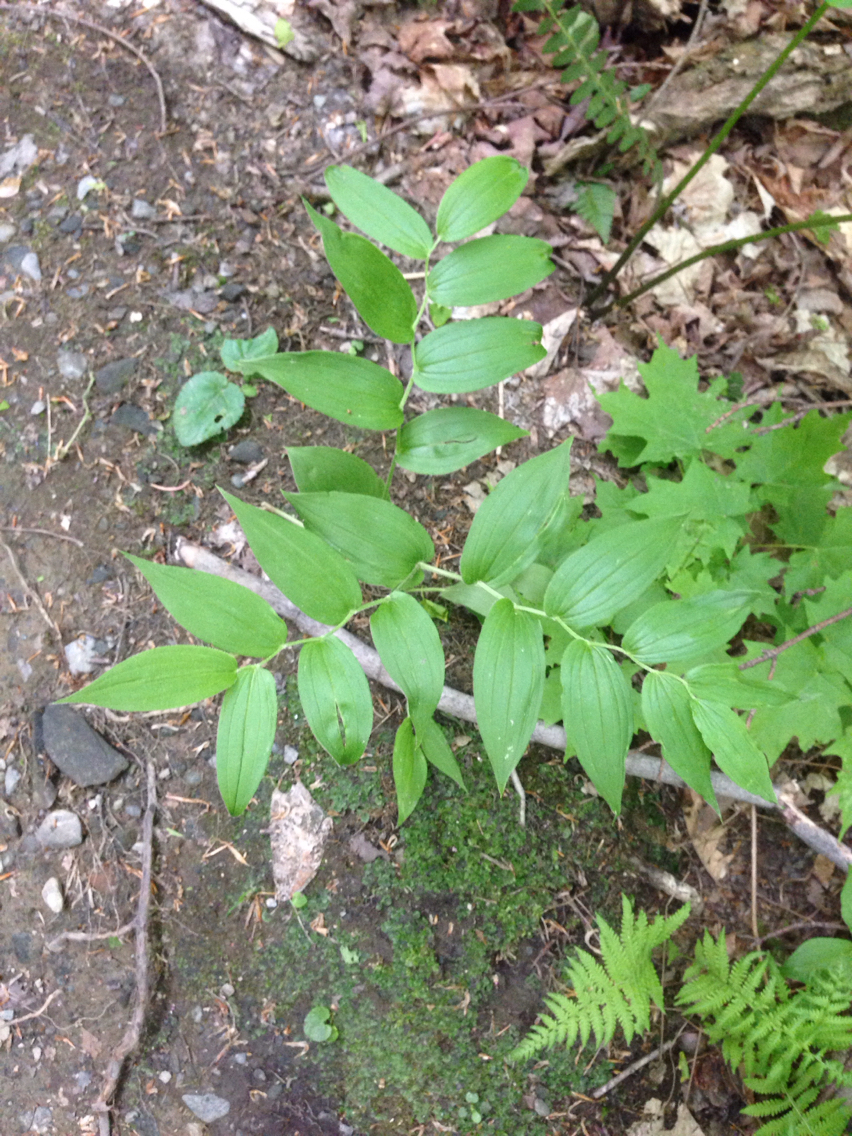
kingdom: Plantae
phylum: Tracheophyta
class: Liliopsida
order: Liliales
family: Liliaceae
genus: Streptopus
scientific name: Streptopus lanceolatus
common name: Rose mandarin
